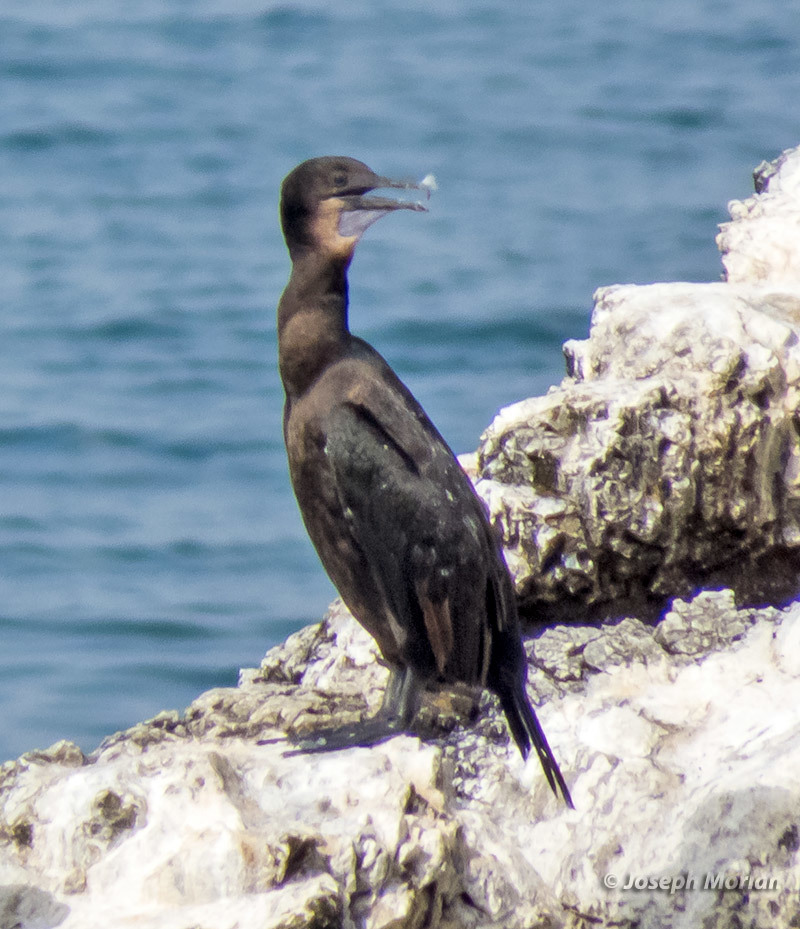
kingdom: Animalia
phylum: Chordata
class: Aves
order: Suliformes
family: Phalacrocoracidae
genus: Urile
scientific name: Urile penicillatus
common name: Brandt's cormorant
